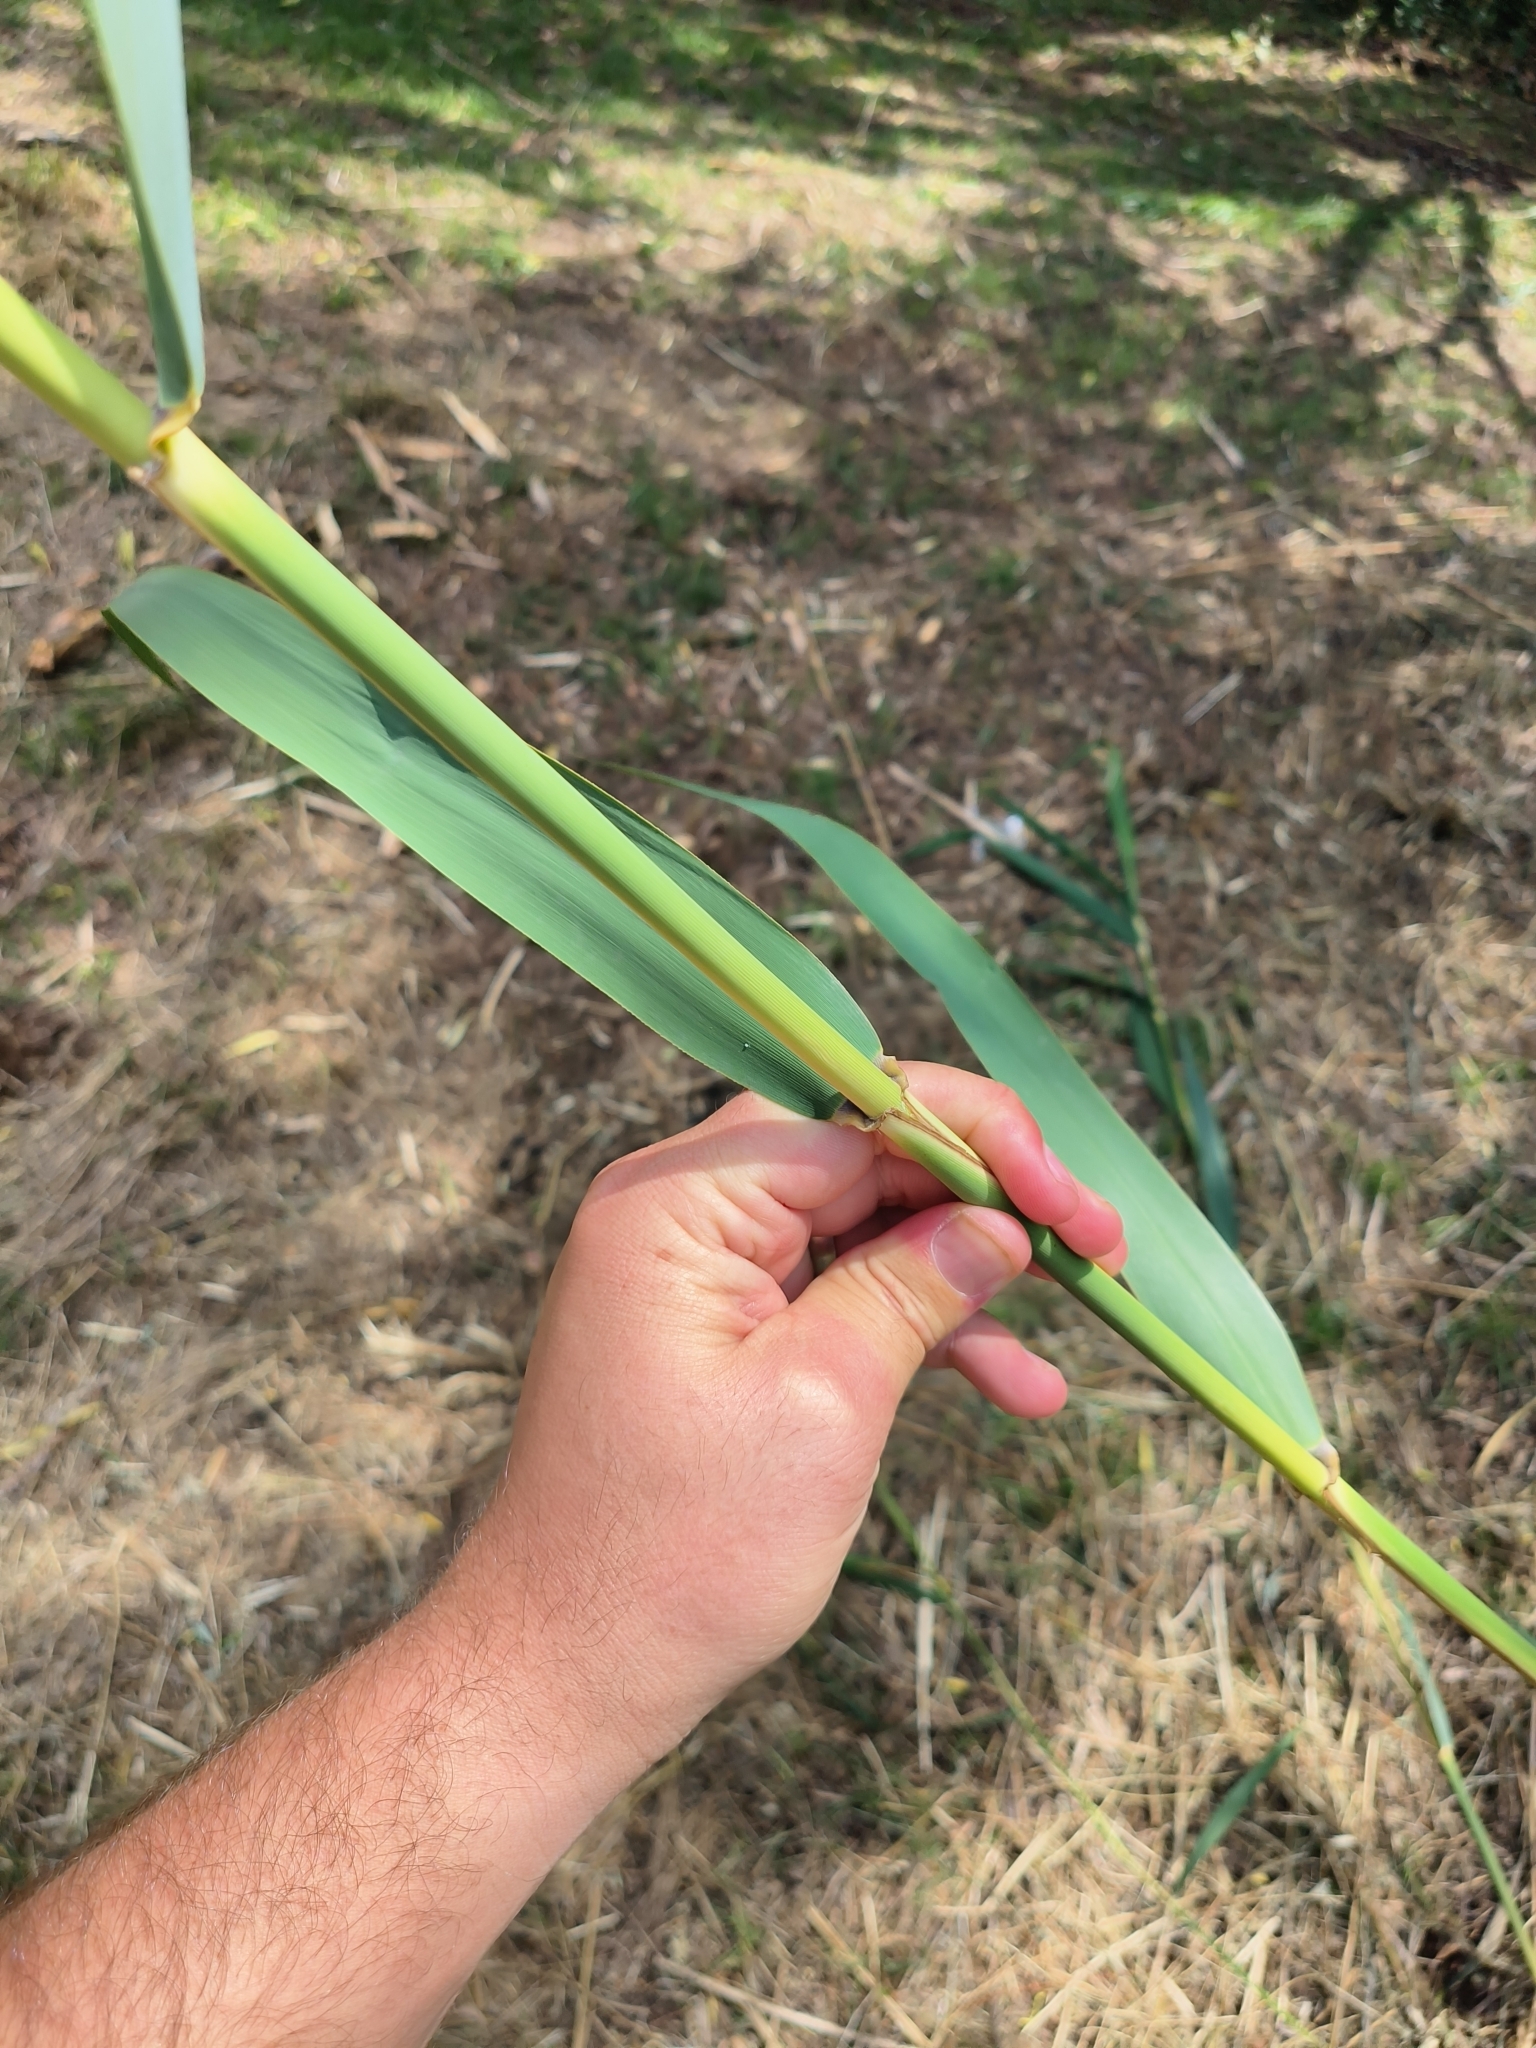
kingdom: Plantae
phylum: Tracheophyta
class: Liliopsida
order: Poales
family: Poaceae
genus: Arundo
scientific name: Arundo donax
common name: Giant reed
